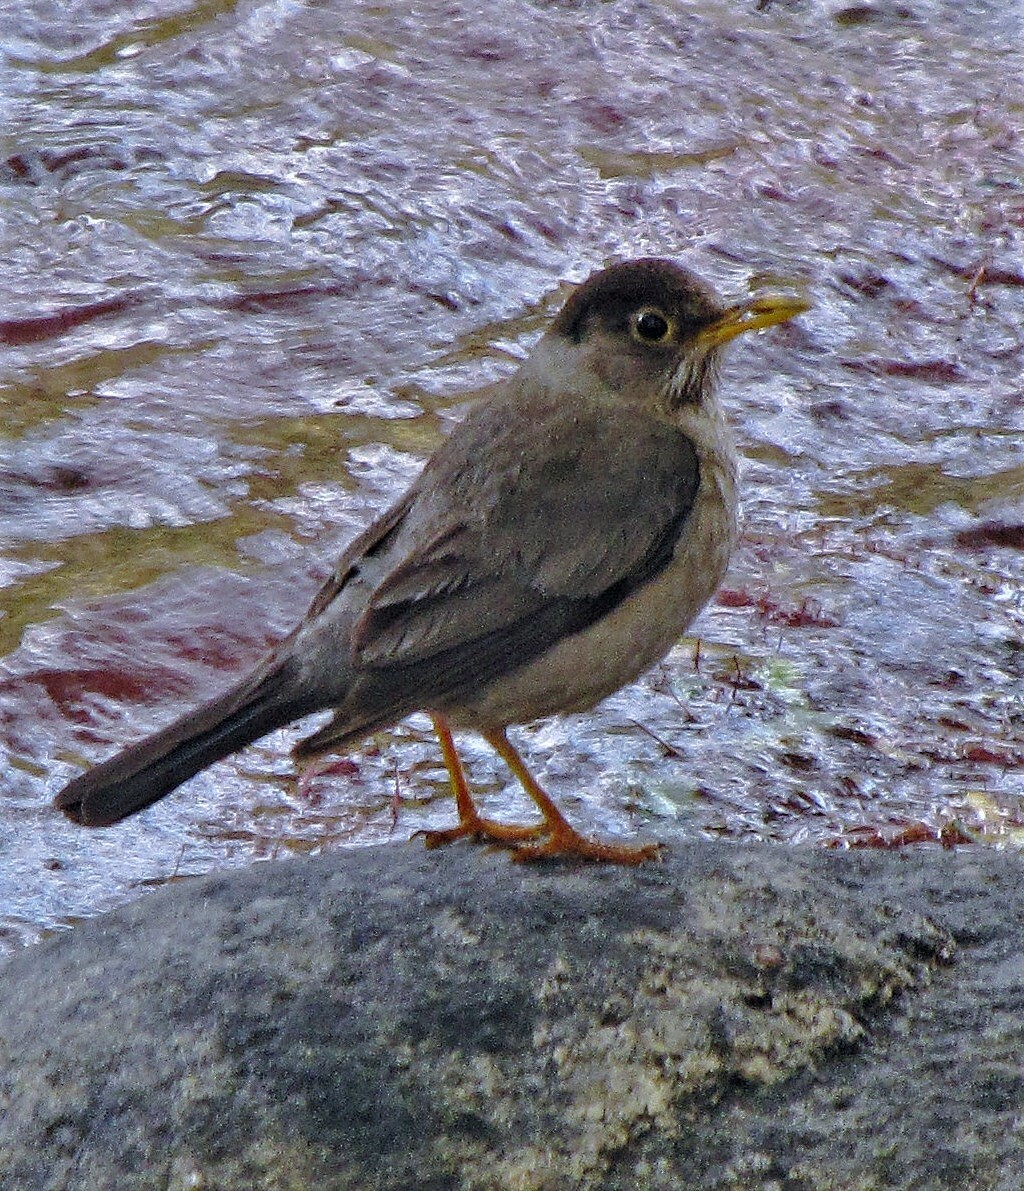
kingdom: Animalia
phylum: Chordata
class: Aves
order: Passeriformes
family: Turdidae
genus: Turdus
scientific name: Turdus falcklandii
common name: Austral thrush
